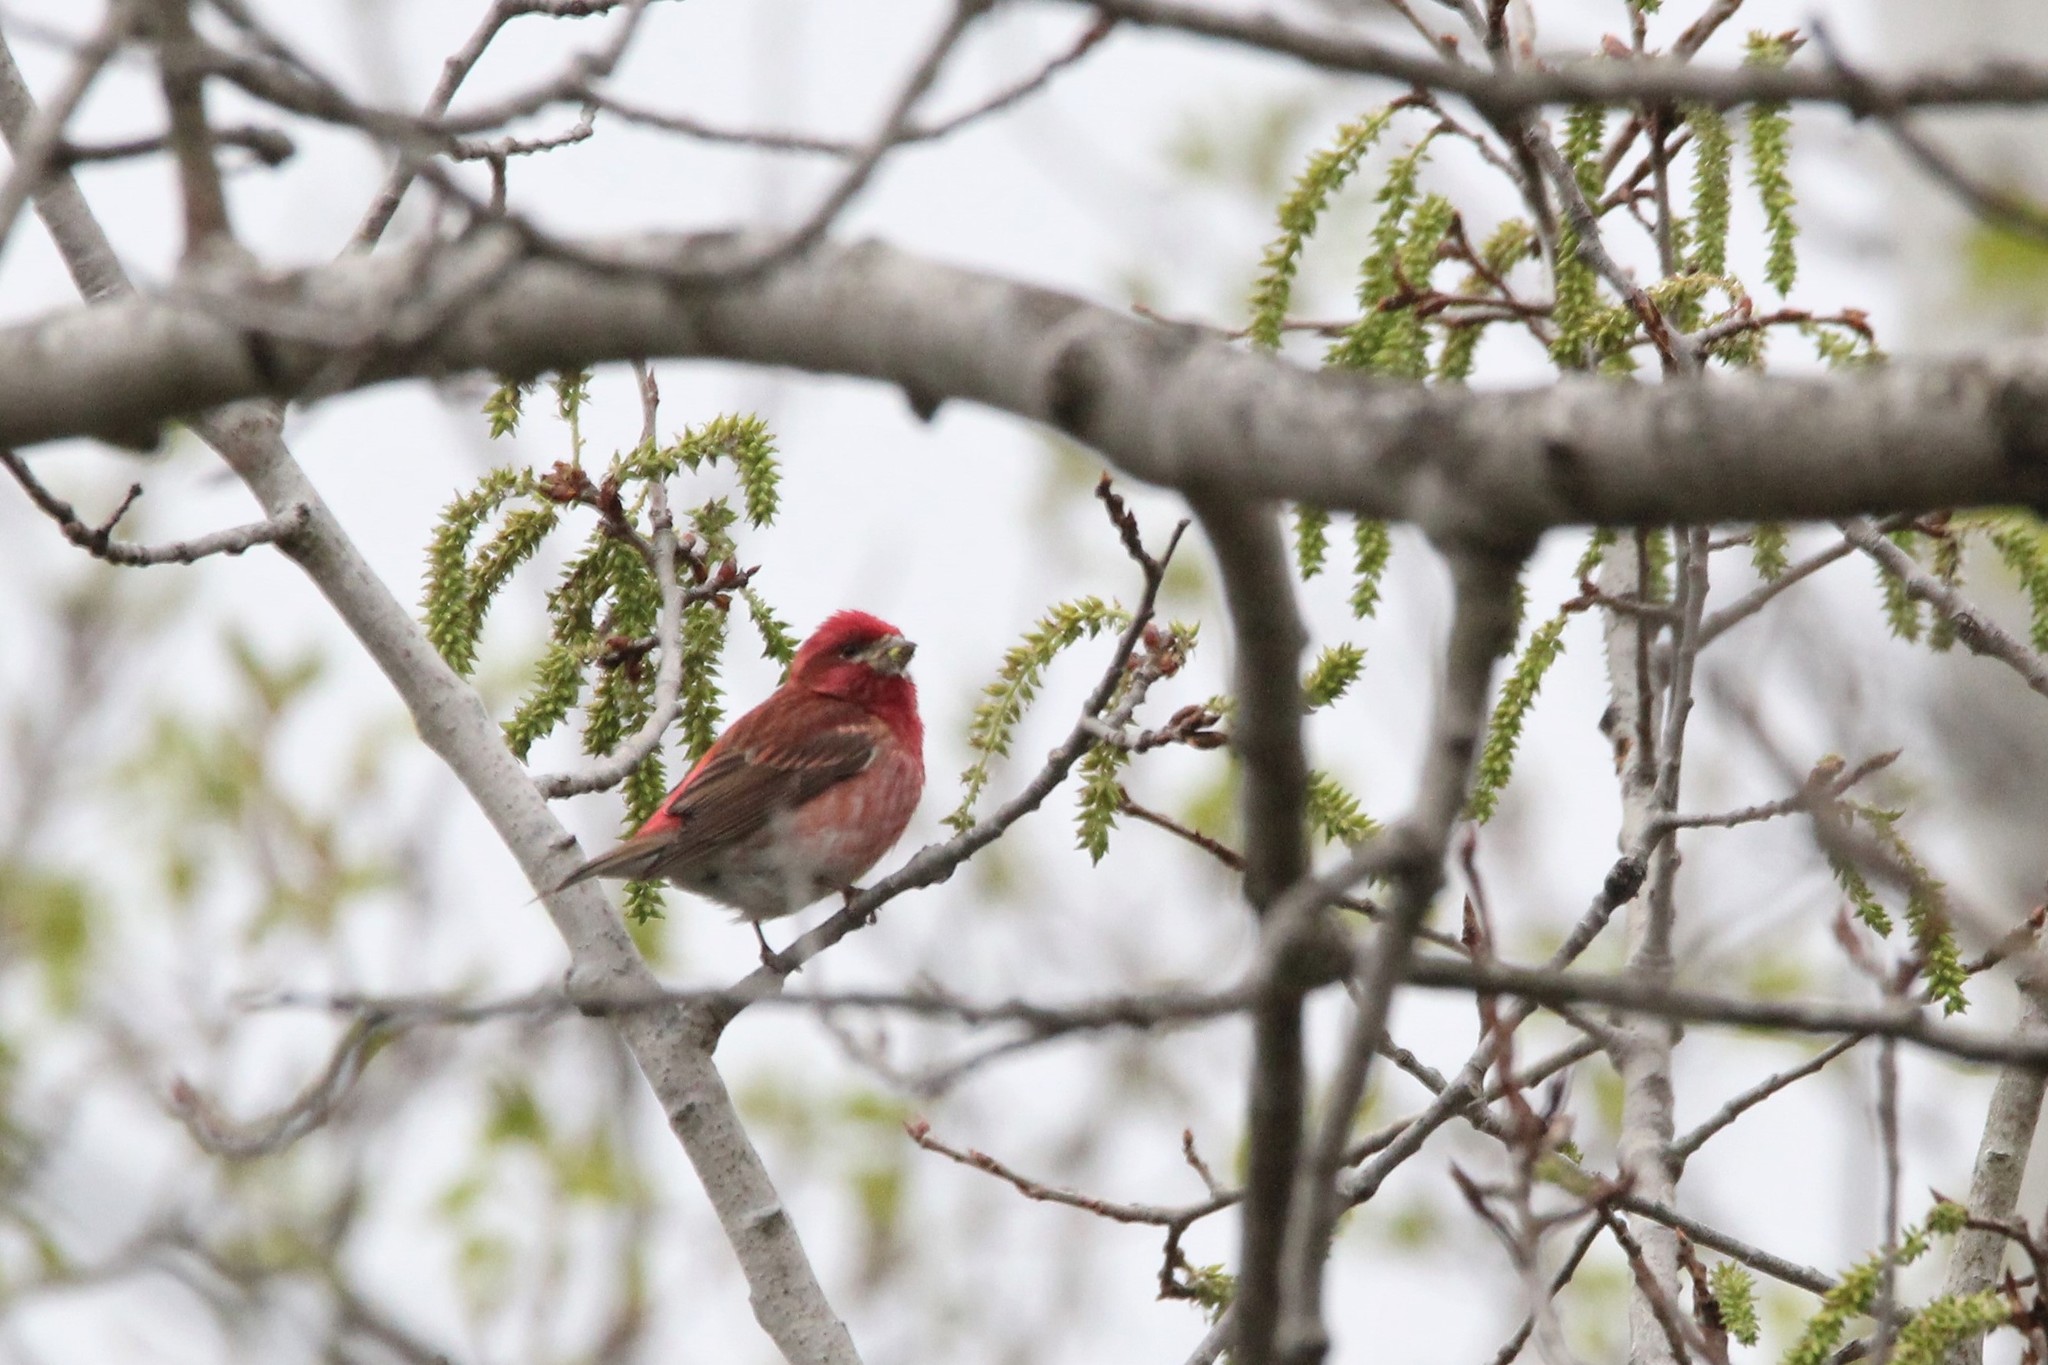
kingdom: Animalia
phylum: Chordata
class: Aves
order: Passeriformes
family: Fringillidae
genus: Haemorhous
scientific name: Haemorhous purpureus
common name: Purple finch
